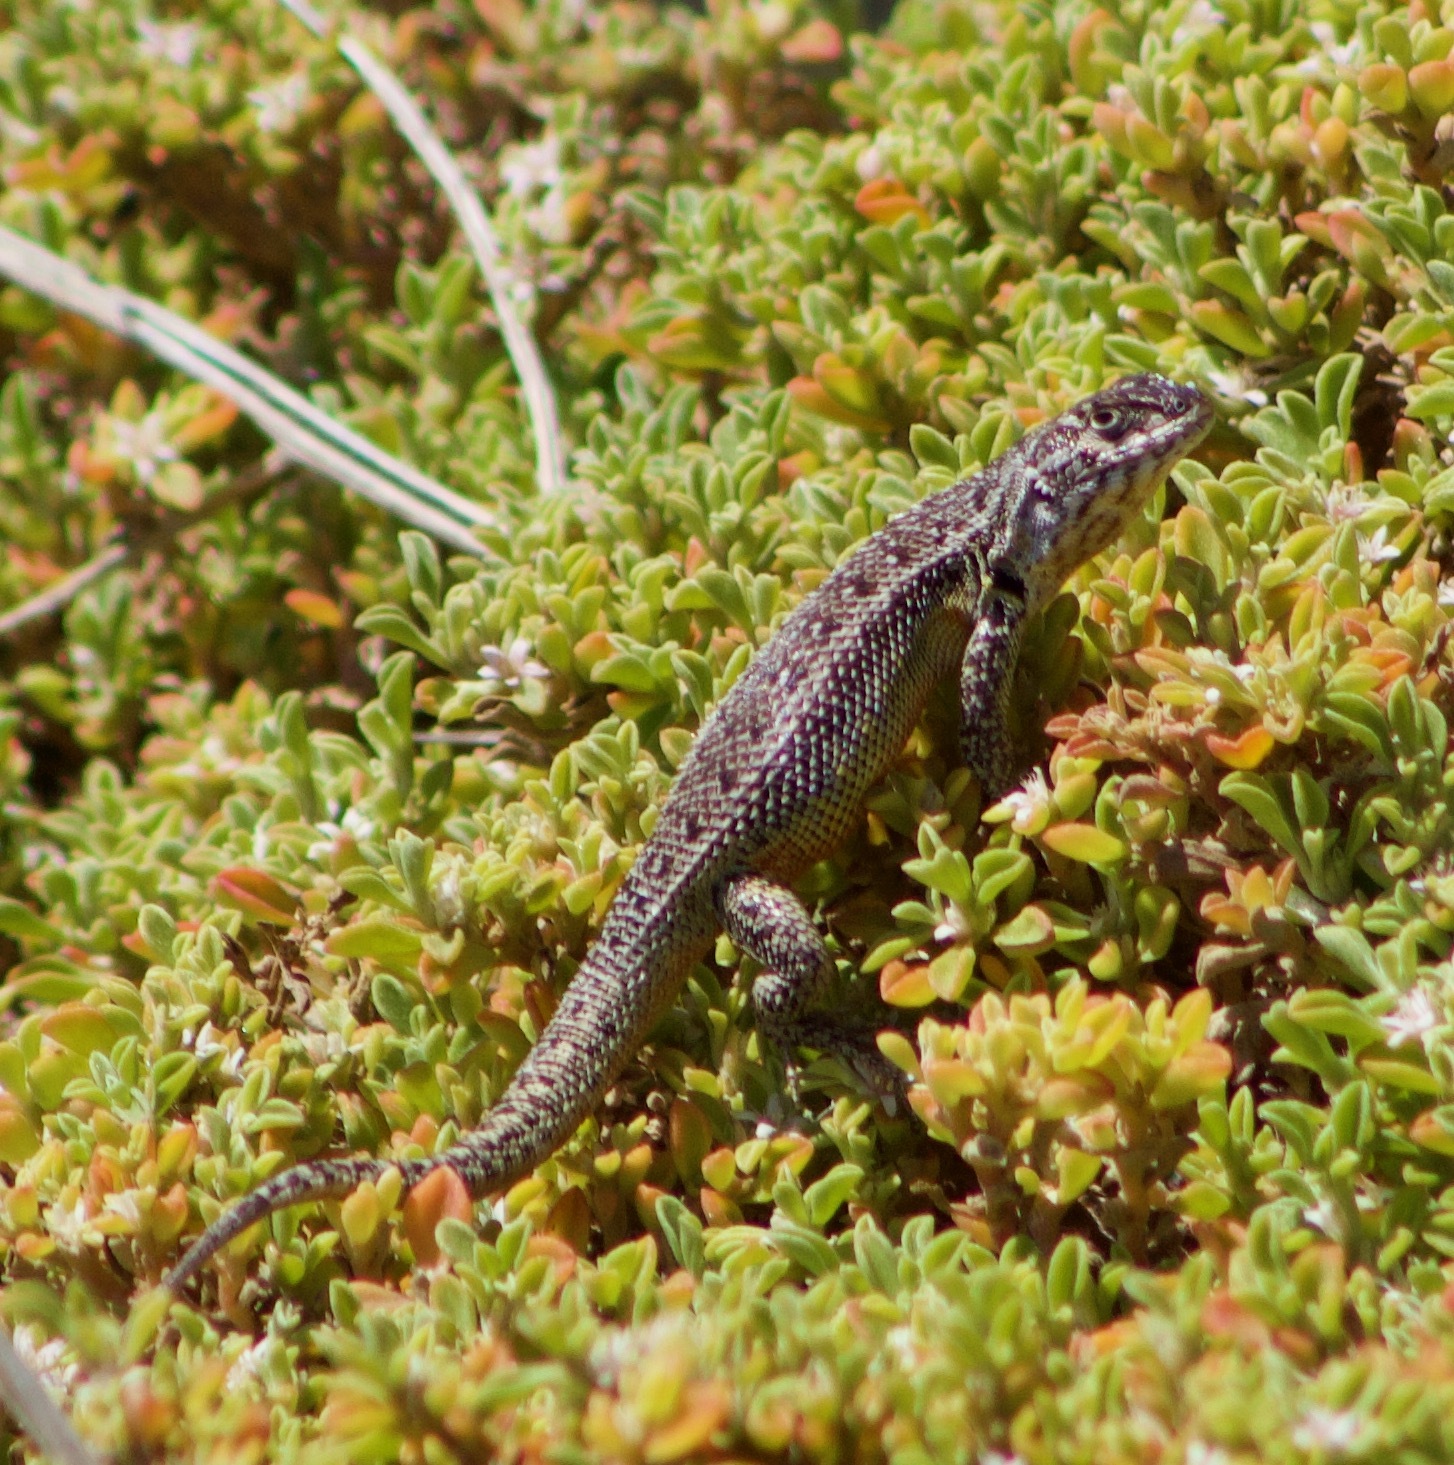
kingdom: Animalia
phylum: Chordata
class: Squamata
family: Liolaemidae
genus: Liolaemus
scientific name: Liolaemus zapallarensis
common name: Zapallaren tree iguana
